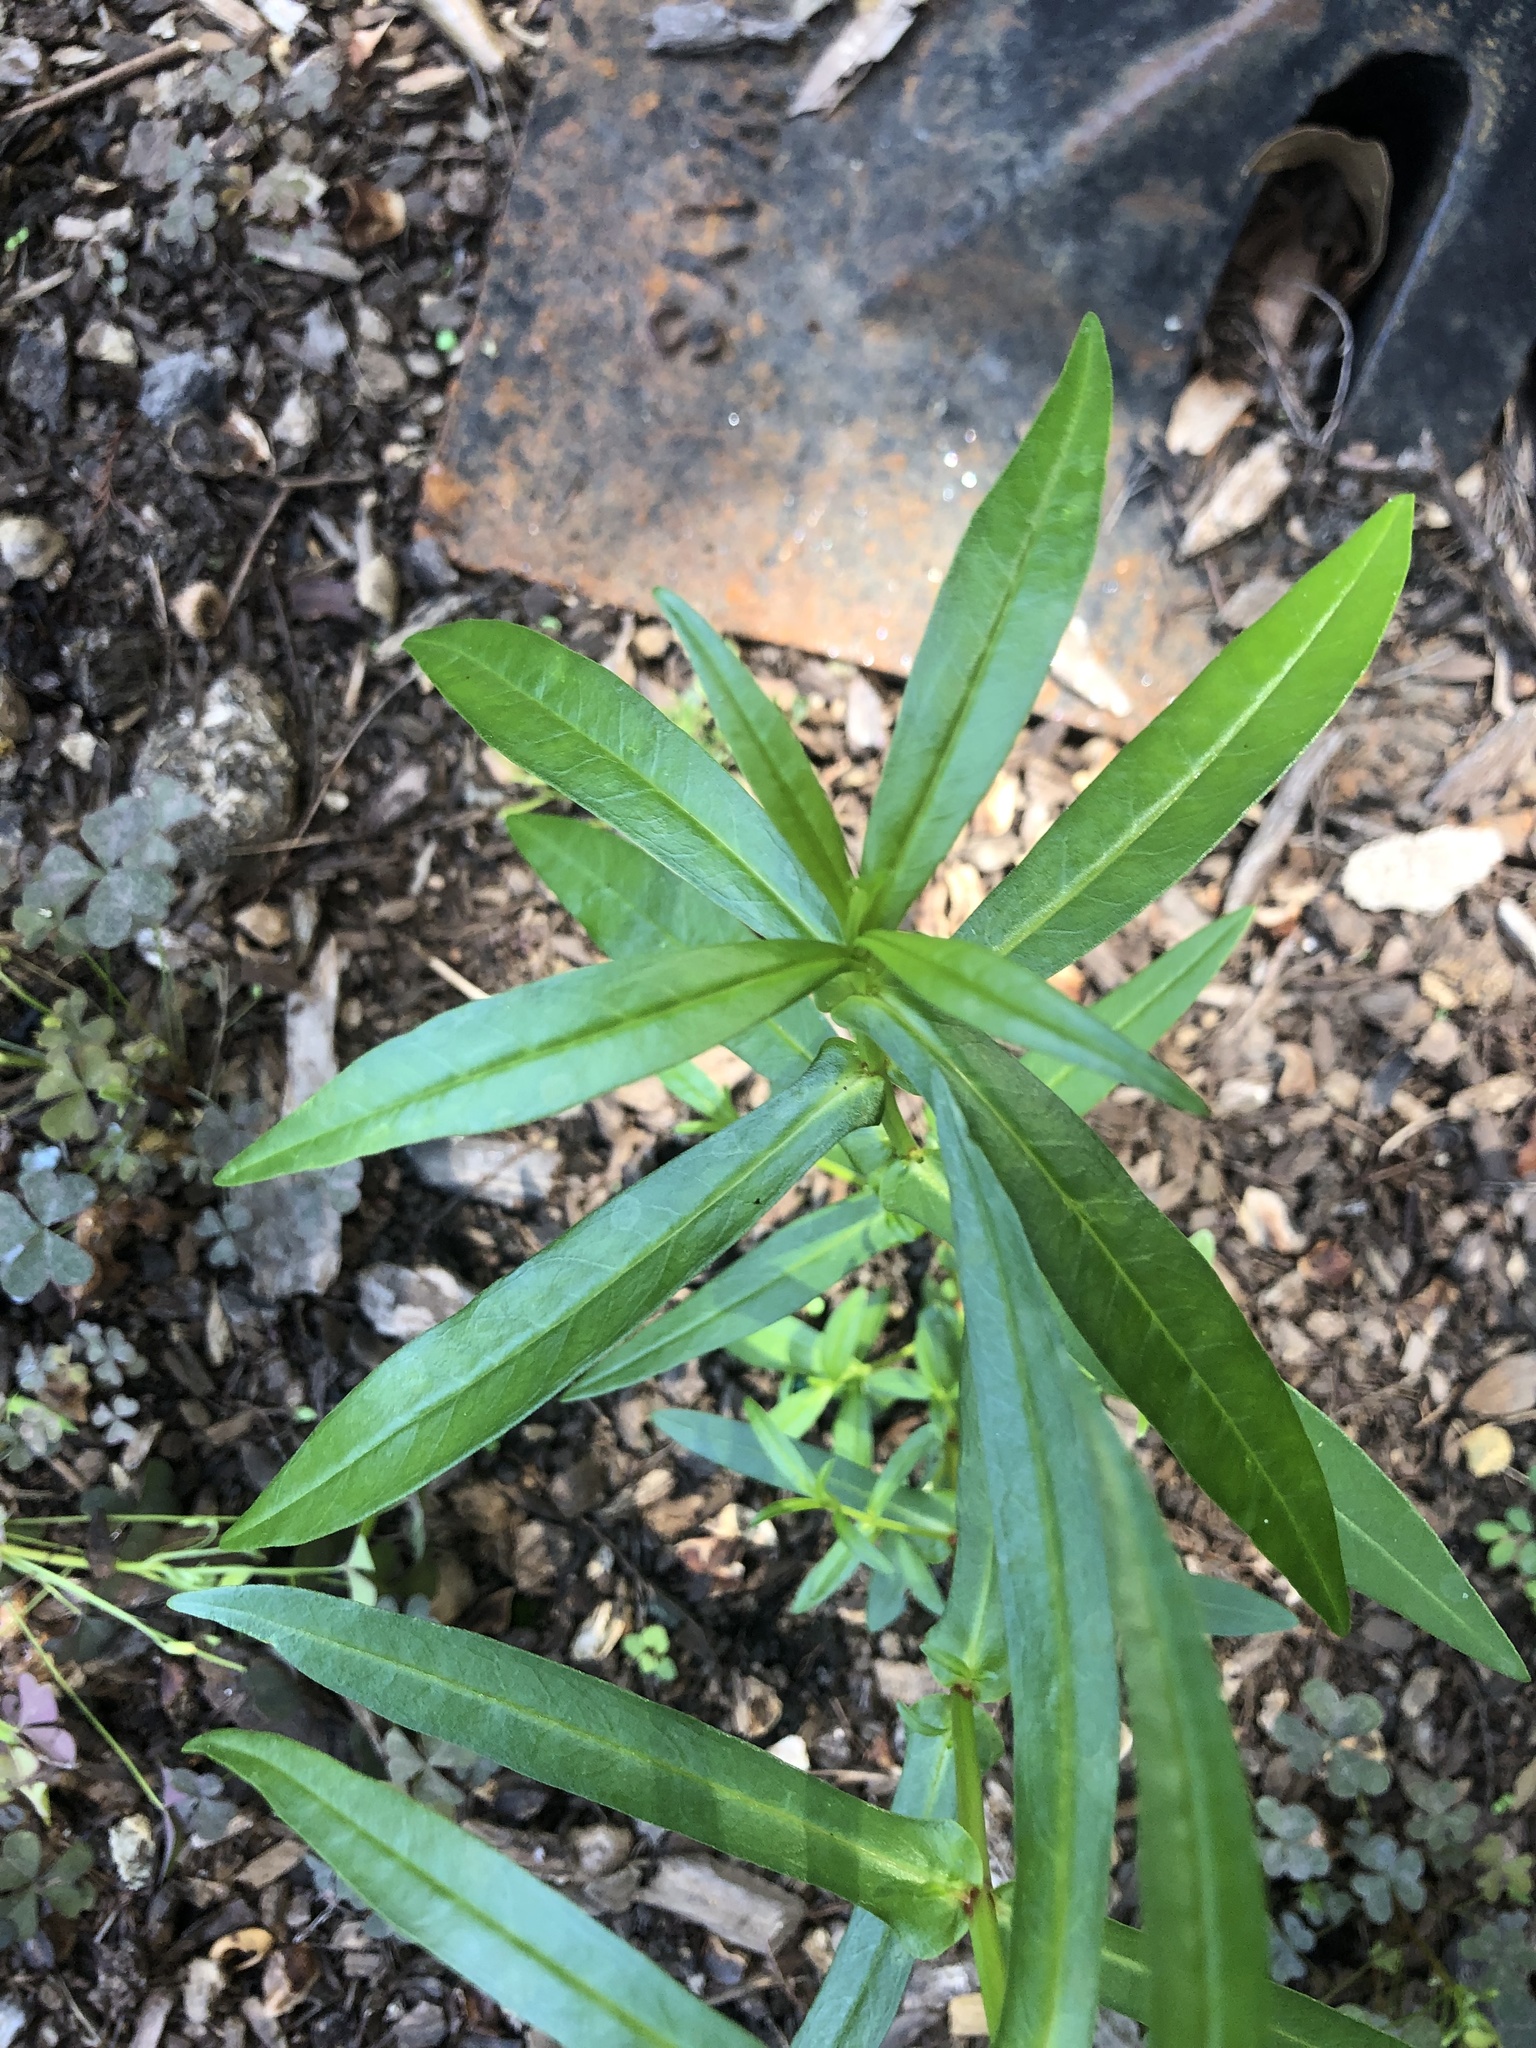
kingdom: Plantae
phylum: Tracheophyta
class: Magnoliopsida
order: Myrtales
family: Lythraceae
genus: Ammannia
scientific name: Ammannia coccinea
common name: Valley redstem
